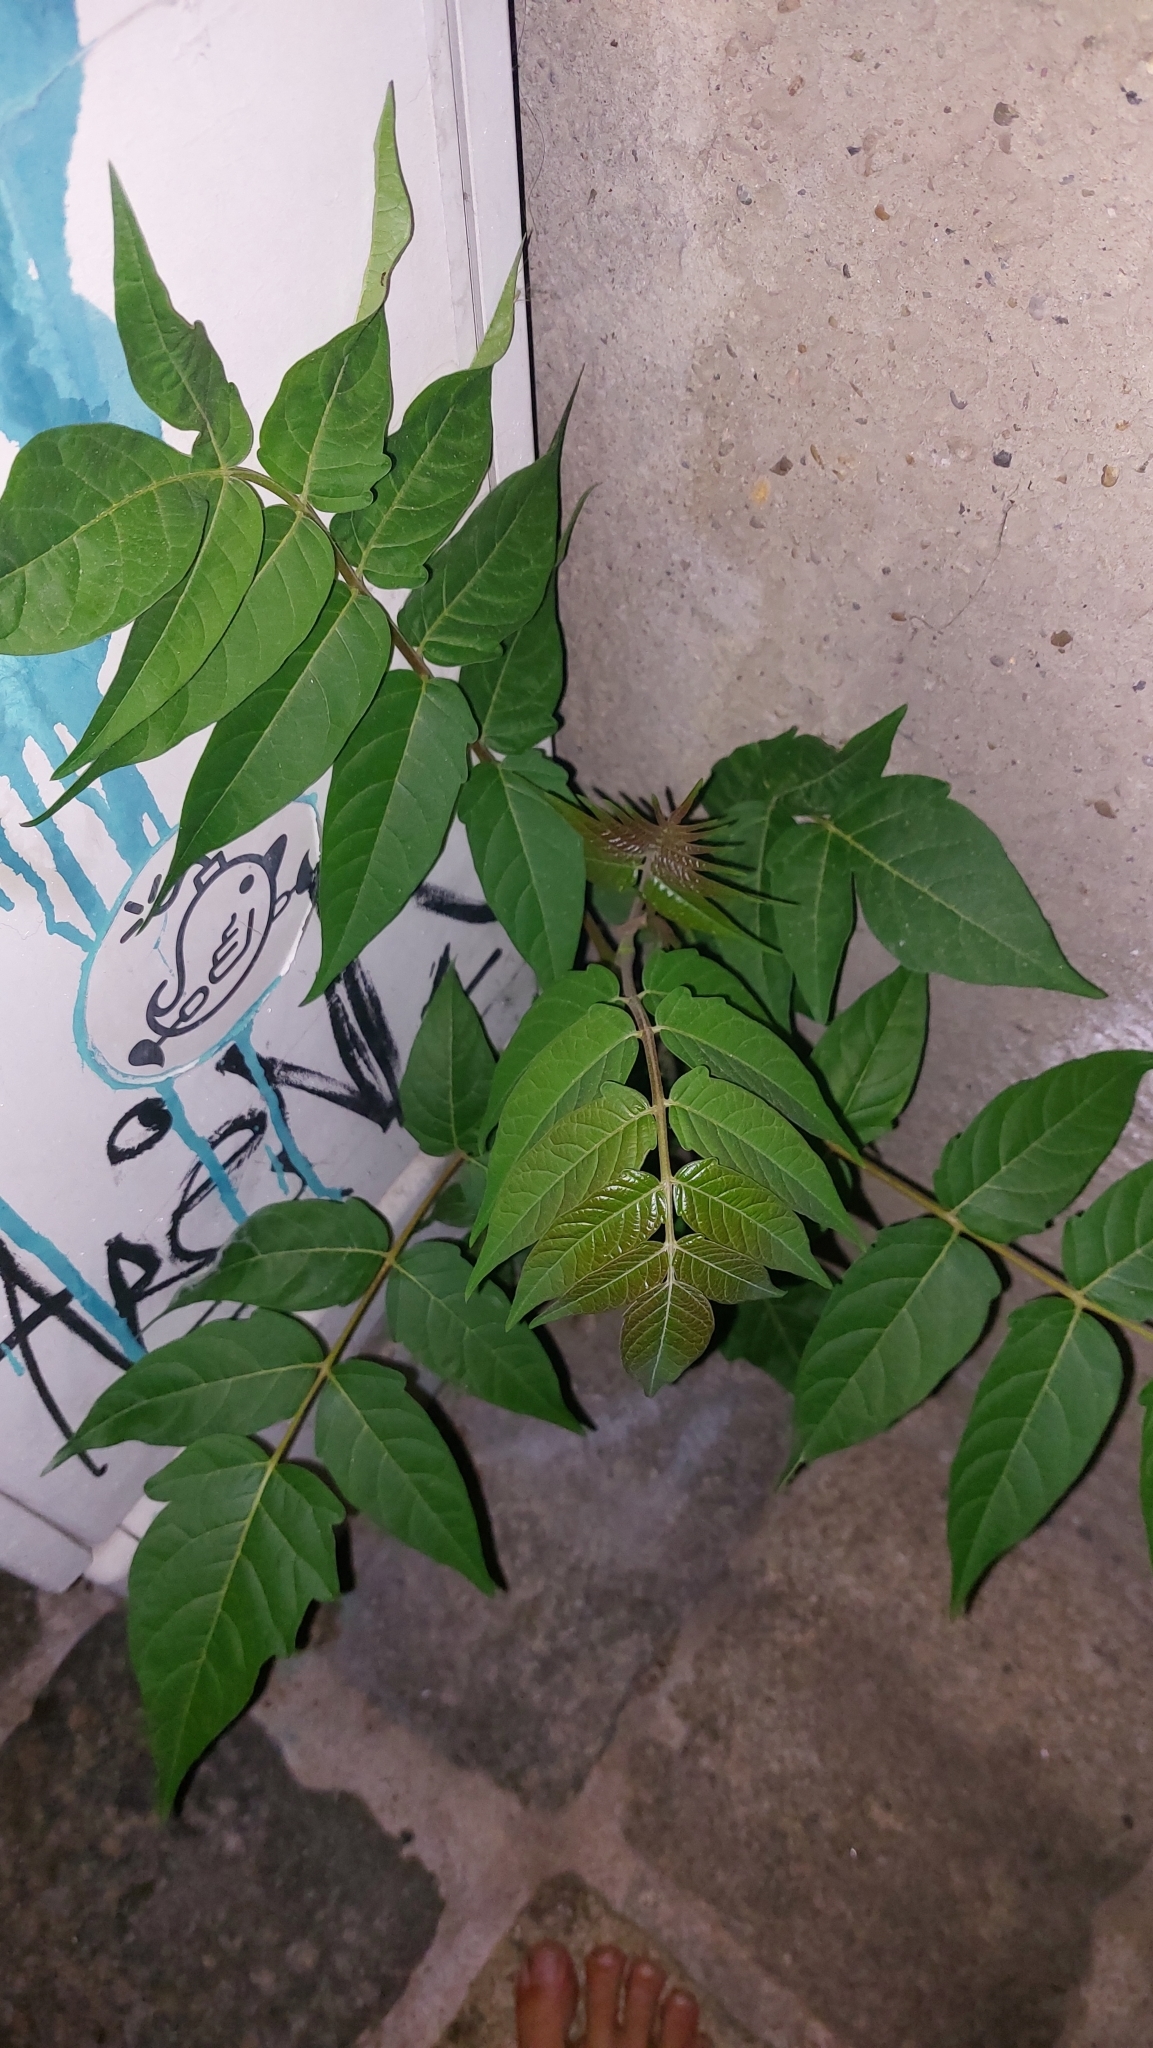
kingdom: Plantae
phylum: Tracheophyta
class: Magnoliopsida
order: Sapindales
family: Simaroubaceae
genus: Ailanthus
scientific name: Ailanthus altissima
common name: Tree-of-heaven
